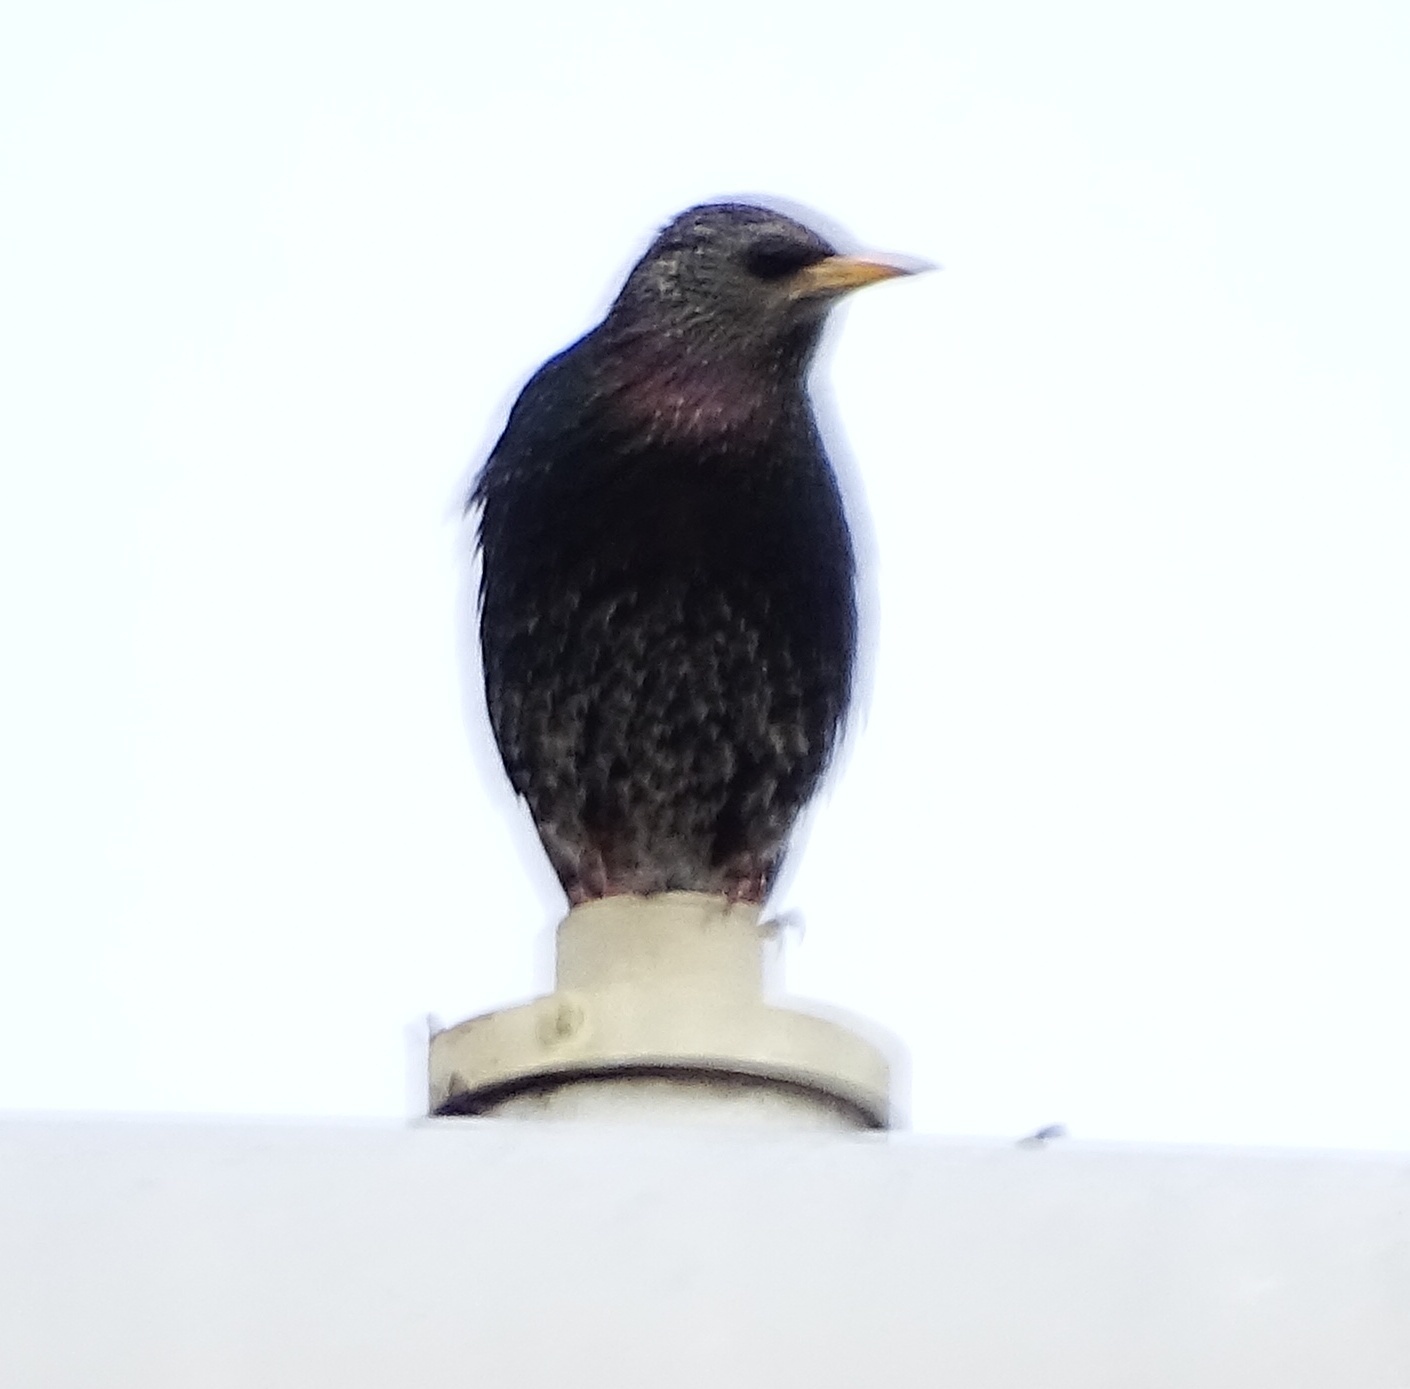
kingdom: Animalia
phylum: Chordata
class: Aves
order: Passeriformes
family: Sturnidae
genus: Sturnus
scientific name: Sturnus vulgaris
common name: Common starling
